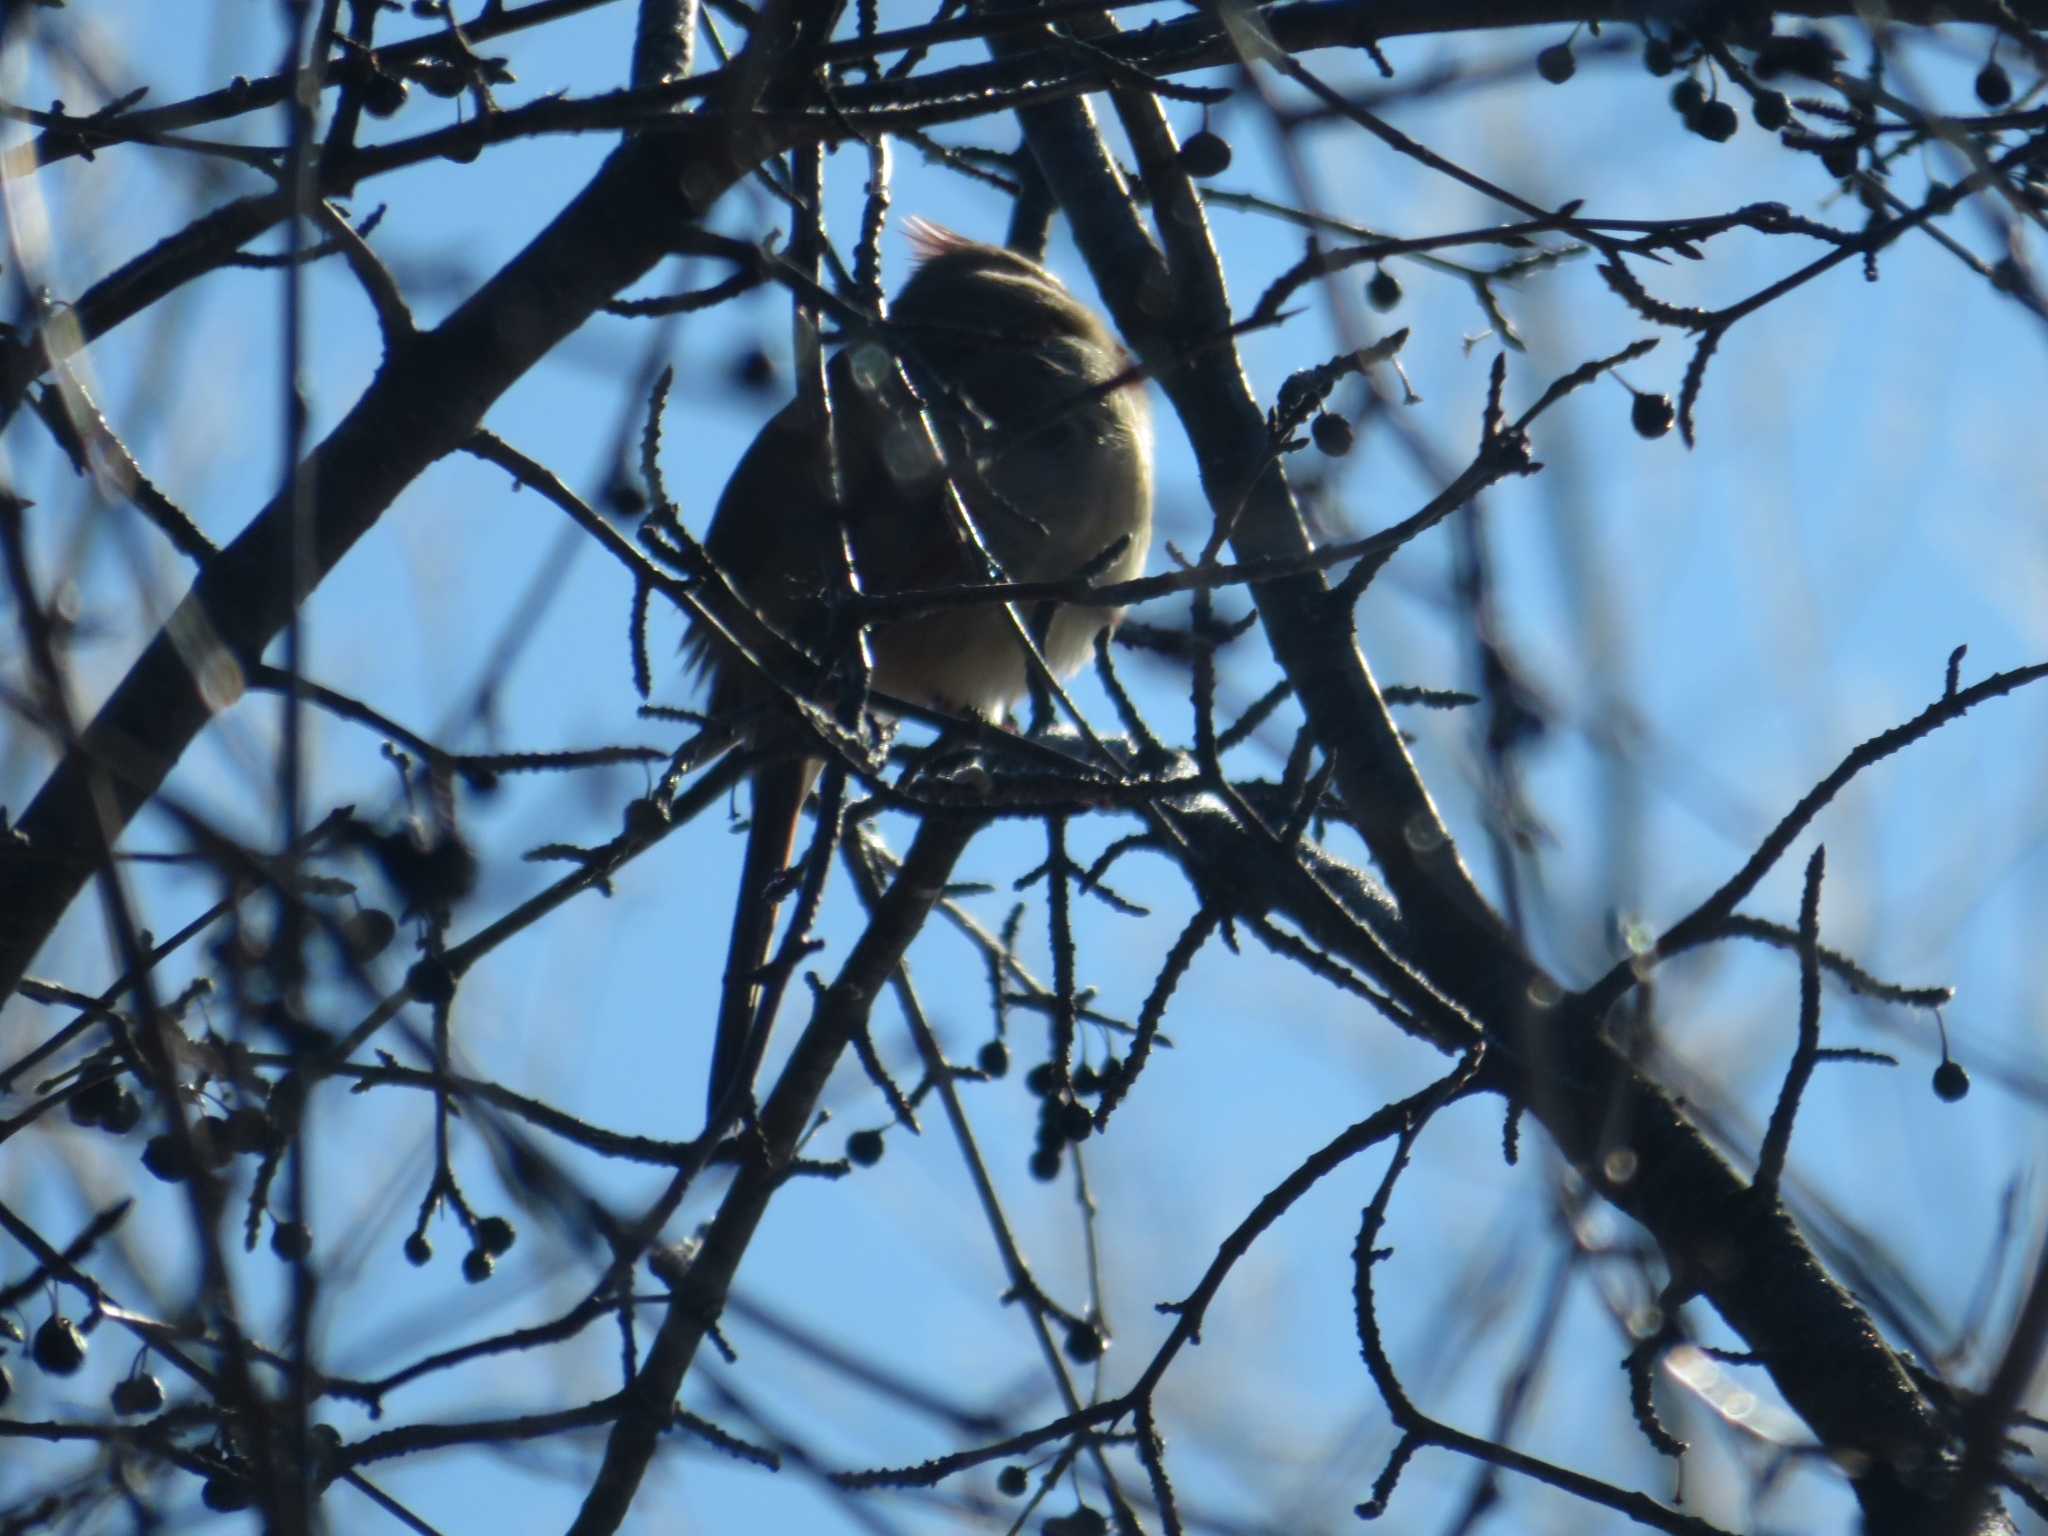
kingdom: Animalia
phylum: Chordata
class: Aves
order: Passeriformes
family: Cardinalidae
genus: Cardinalis
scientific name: Cardinalis cardinalis
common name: Northern cardinal
